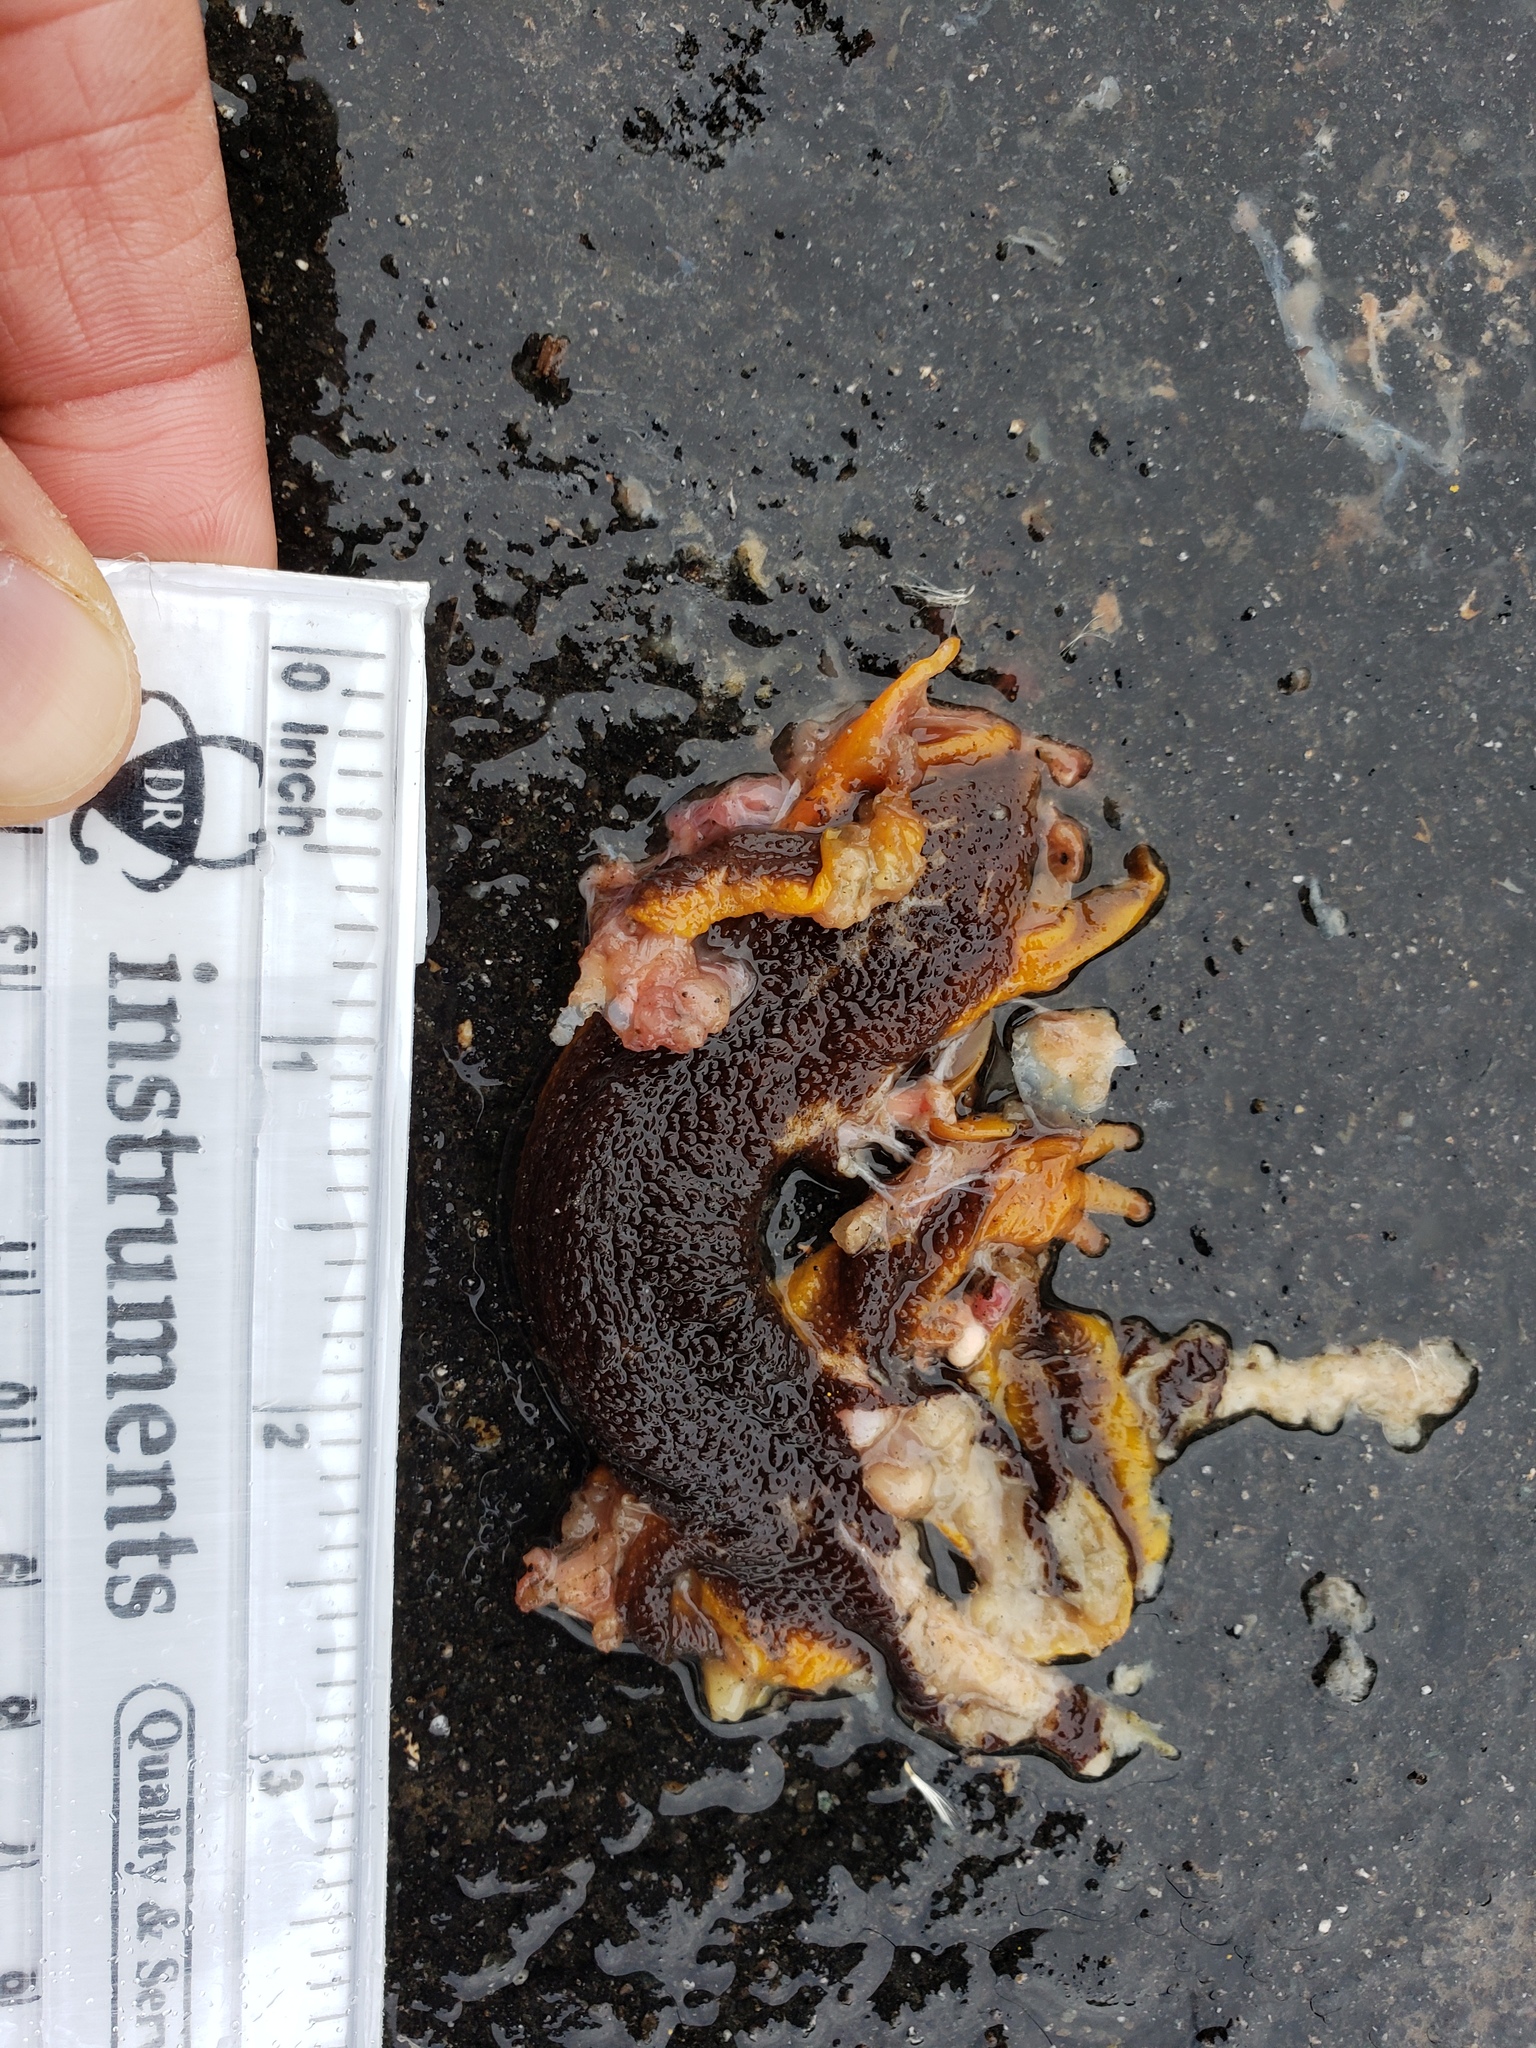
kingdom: Animalia
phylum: Chordata
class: Amphibia
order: Caudata
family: Salamandridae
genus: Taricha
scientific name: Taricha
